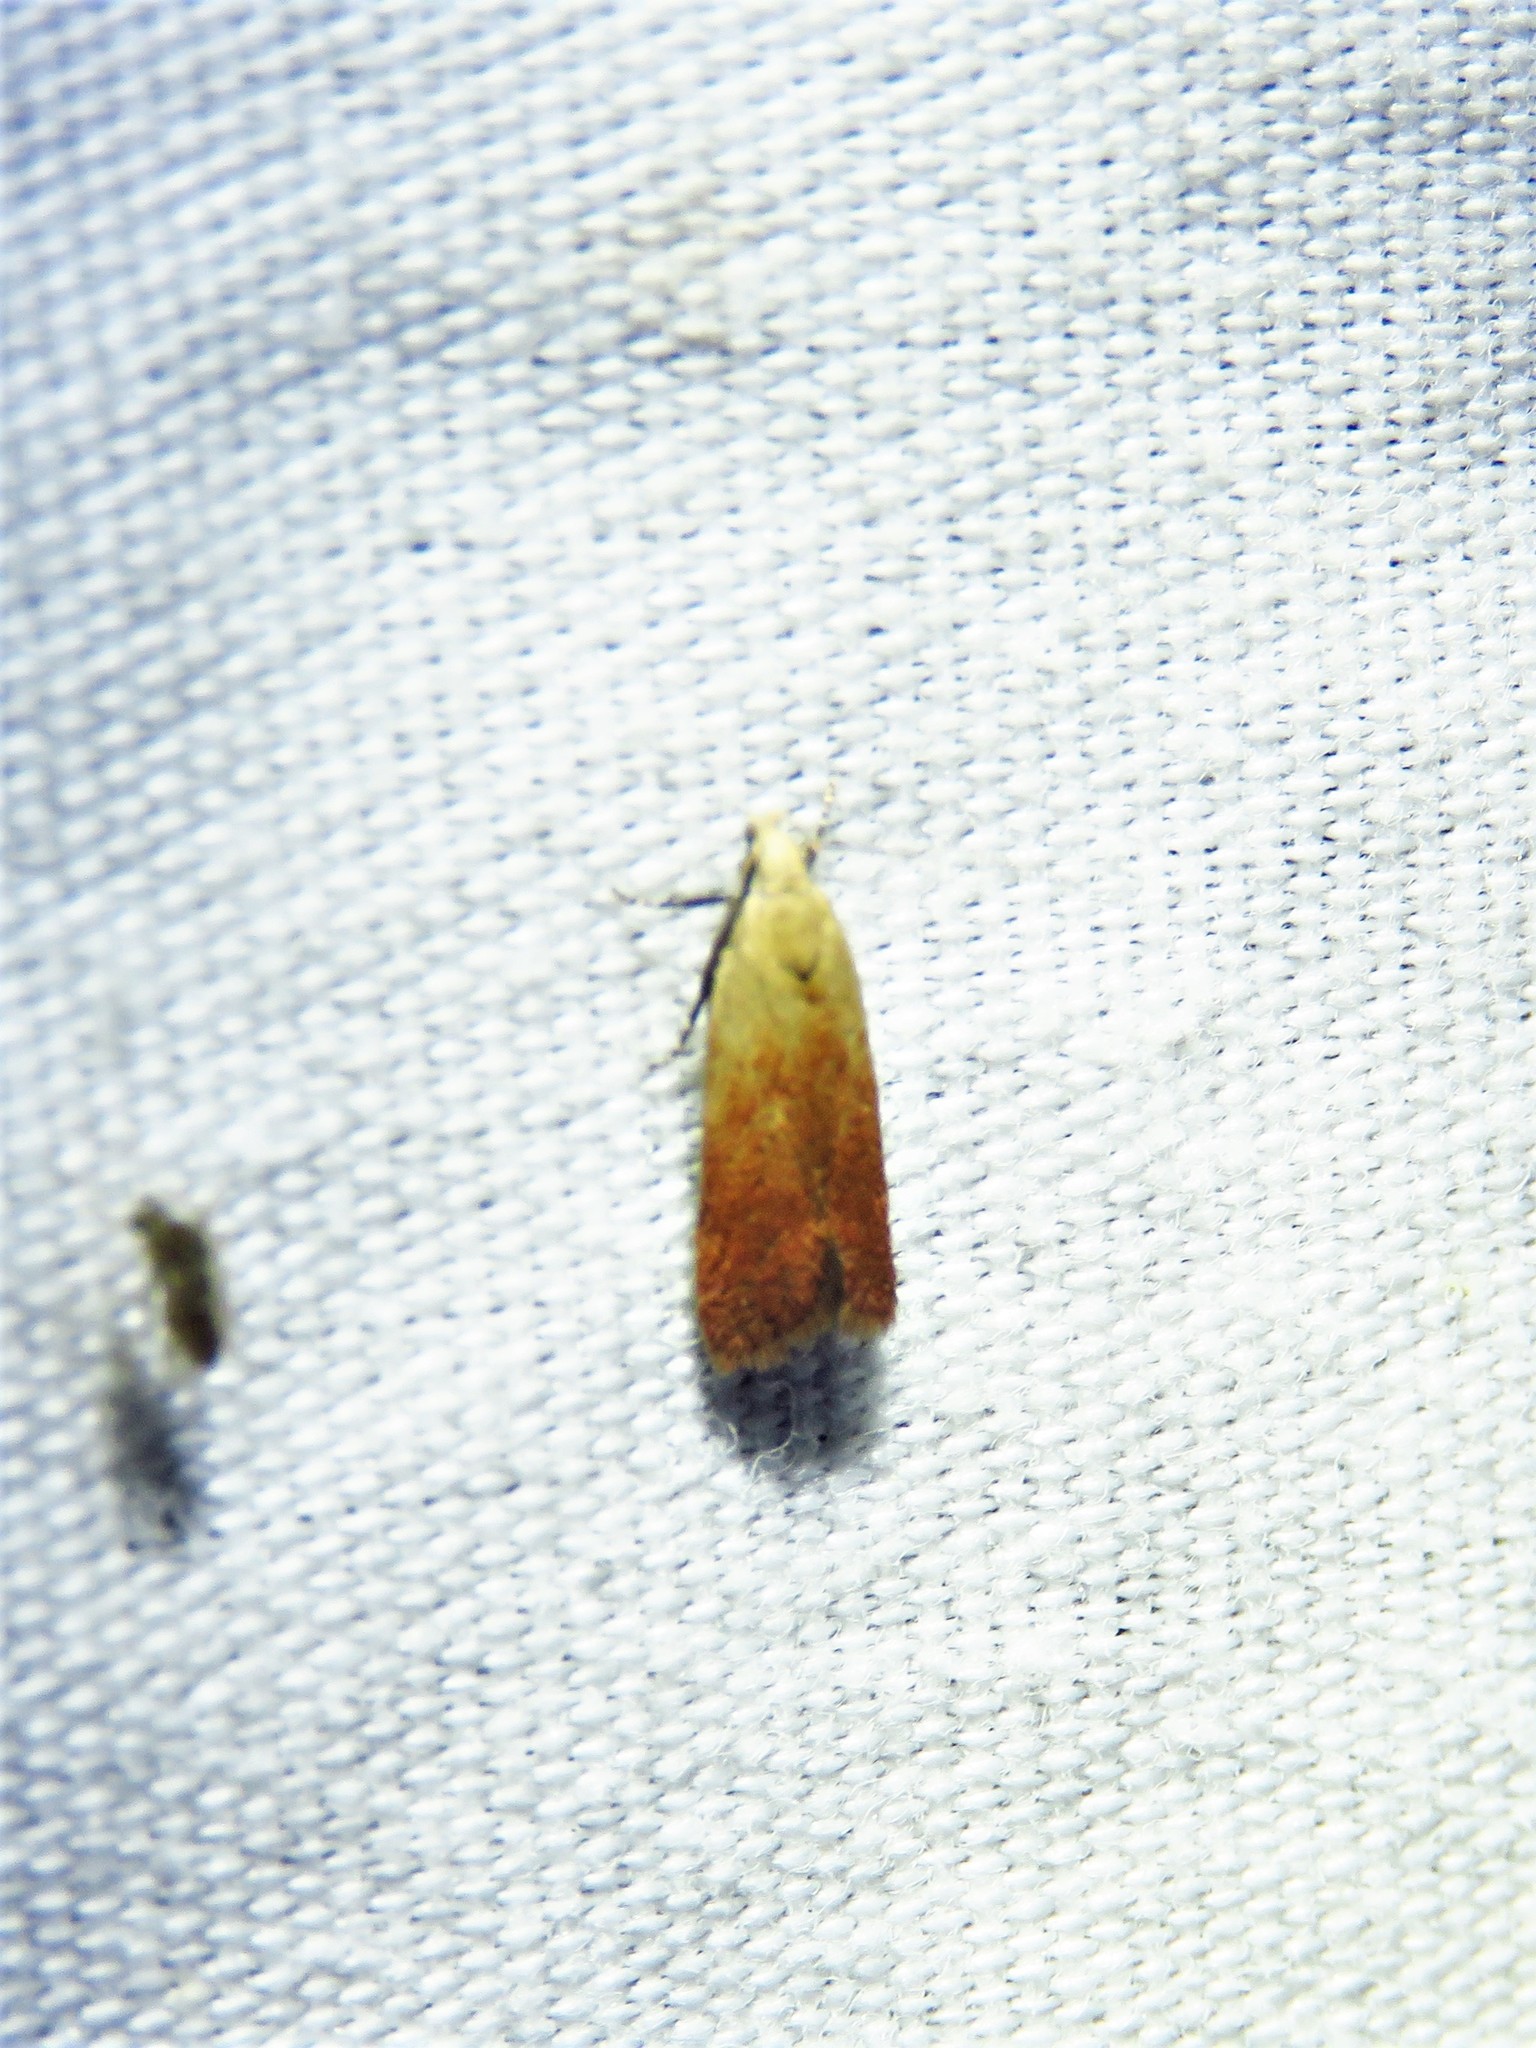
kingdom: Animalia
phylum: Arthropoda
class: Insecta
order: Lepidoptera
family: Gelechiidae
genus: Anacampsis
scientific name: Anacampsis fullonella
